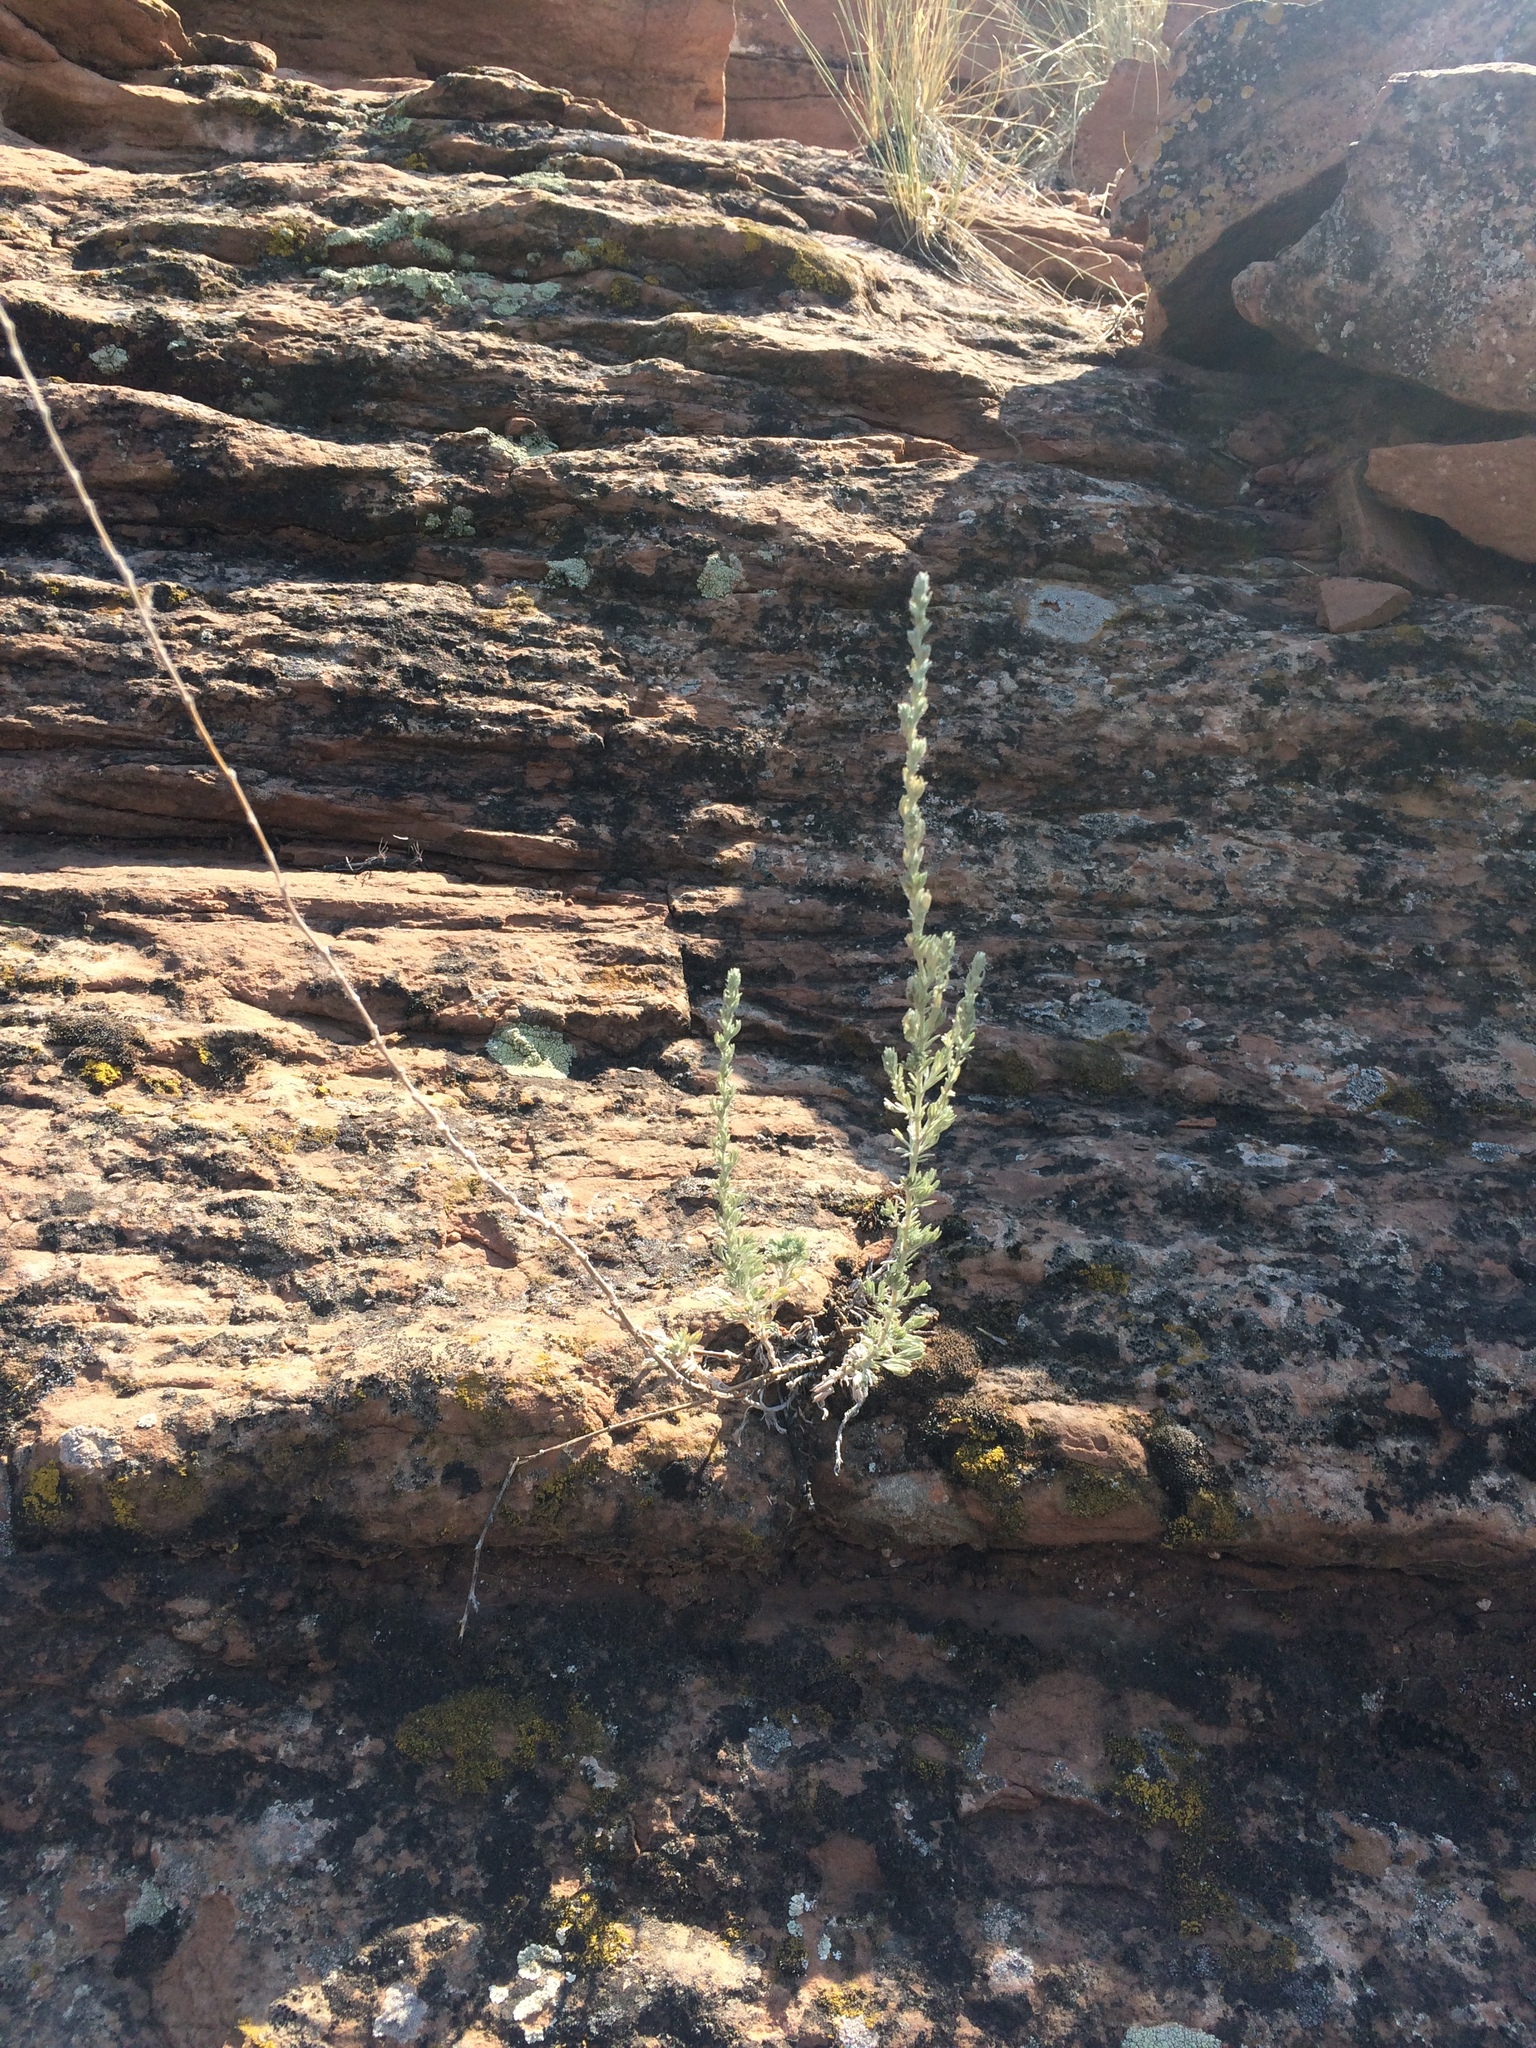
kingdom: Plantae
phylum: Tracheophyta
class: Magnoliopsida
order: Asterales
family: Asteraceae
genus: Artemisia
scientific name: Artemisia frigida
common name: Prairie sagewort
